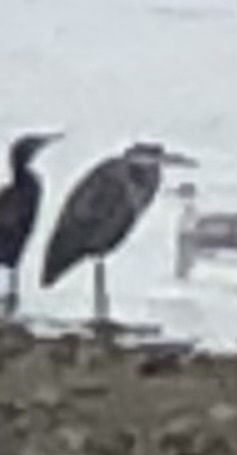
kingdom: Animalia
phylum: Chordata
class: Aves
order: Pelecaniformes
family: Ardeidae
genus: Ardea
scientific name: Ardea cinerea
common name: Grey heron
